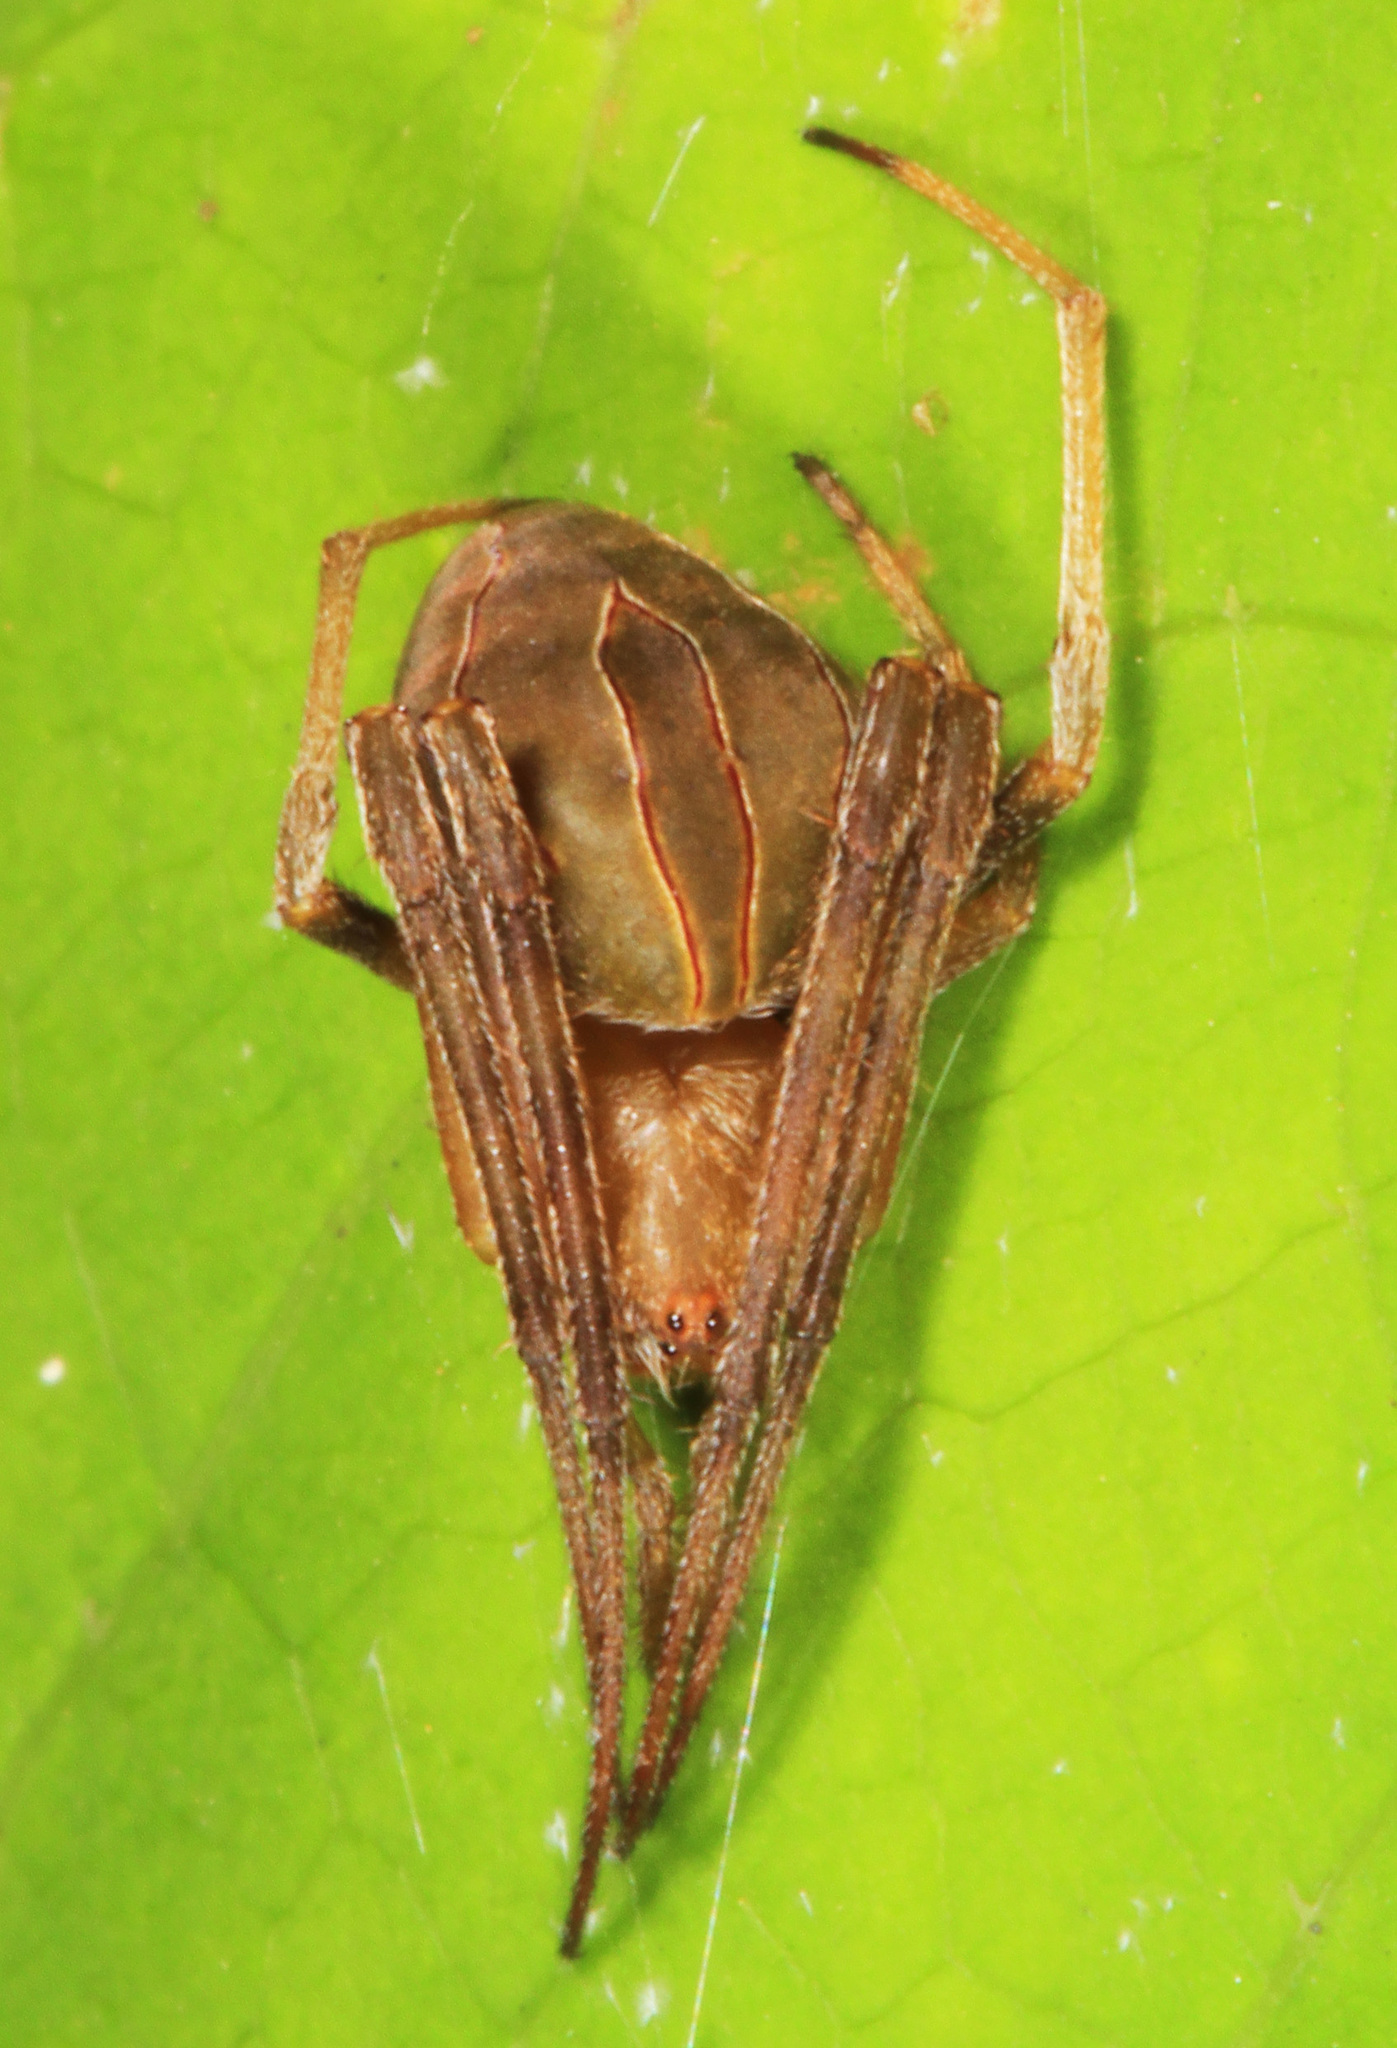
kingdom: Animalia
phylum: Arthropoda
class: Arachnida
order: Araneae
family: Araneidae
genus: Acacesia
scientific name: Acacesia hamata
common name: Orb weavers
